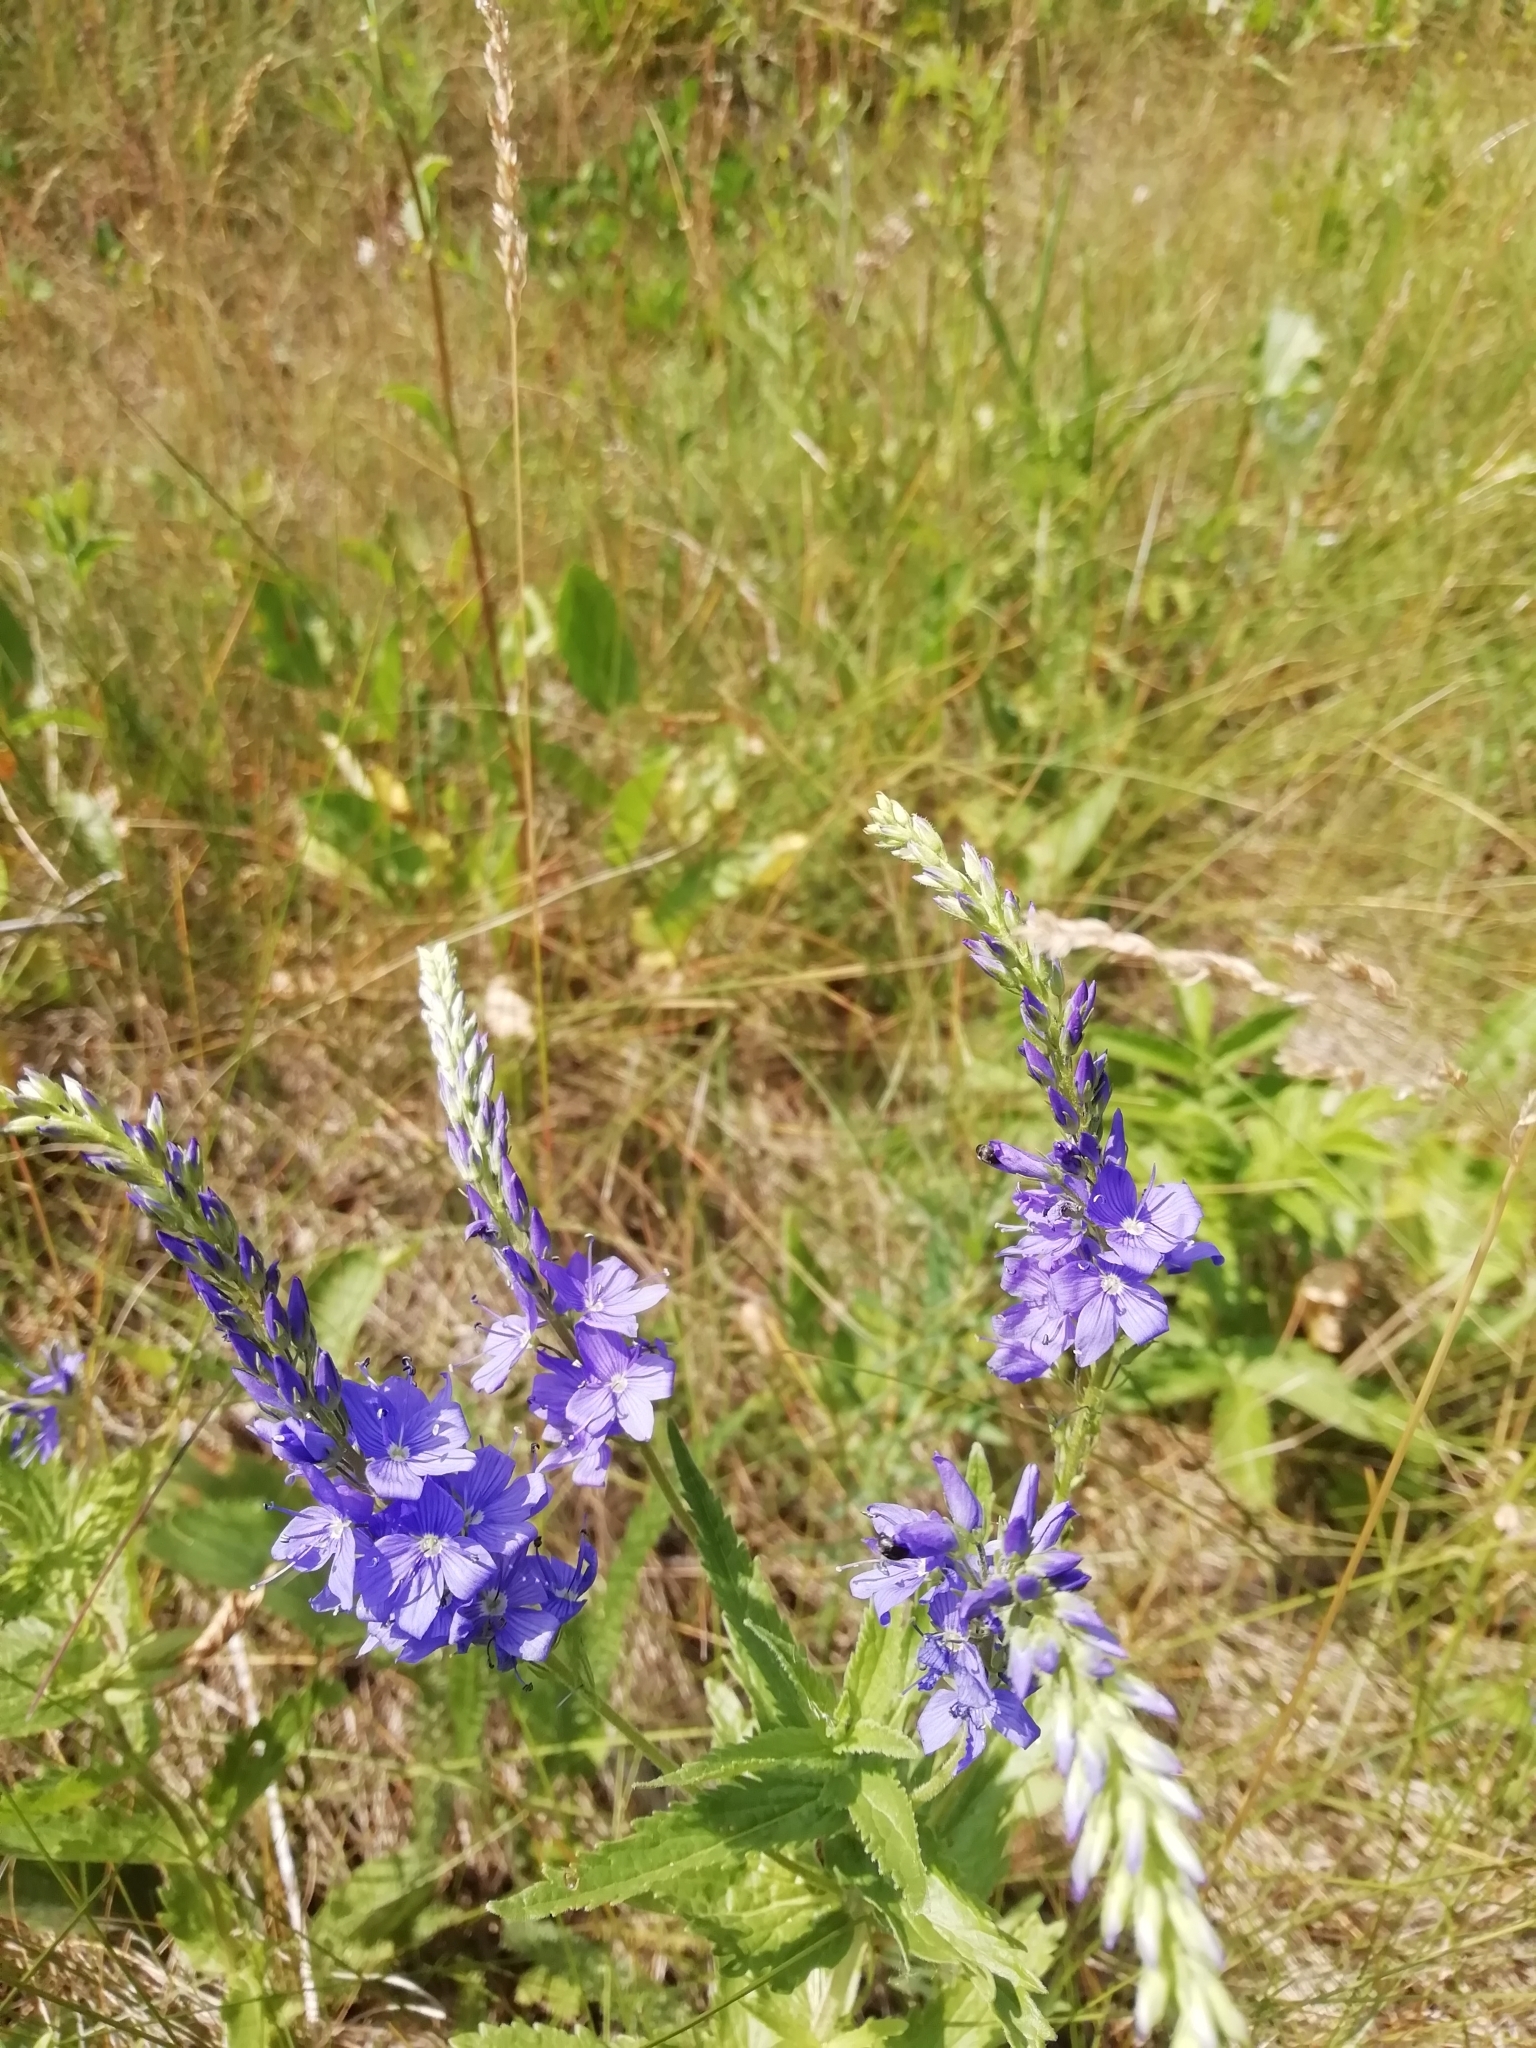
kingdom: Plantae
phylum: Tracheophyta
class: Magnoliopsida
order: Lamiales
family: Plantaginaceae
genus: Veronica
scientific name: Veronica teucrium
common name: Large speedwell
